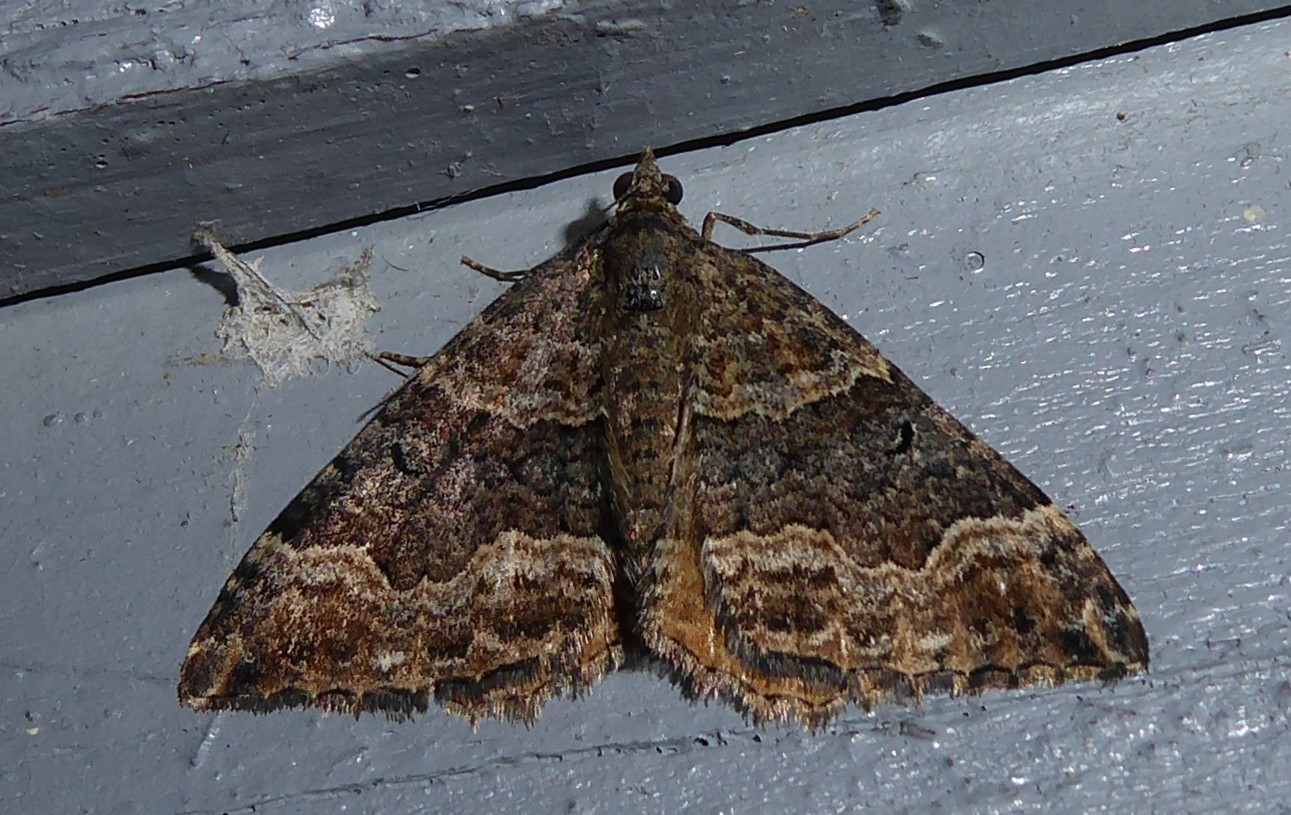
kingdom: Animalia
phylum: Arthropoda
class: Insecta
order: Lepidoptera
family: Geometridae
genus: Hydriomena
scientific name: Hydriomena deltoidata
